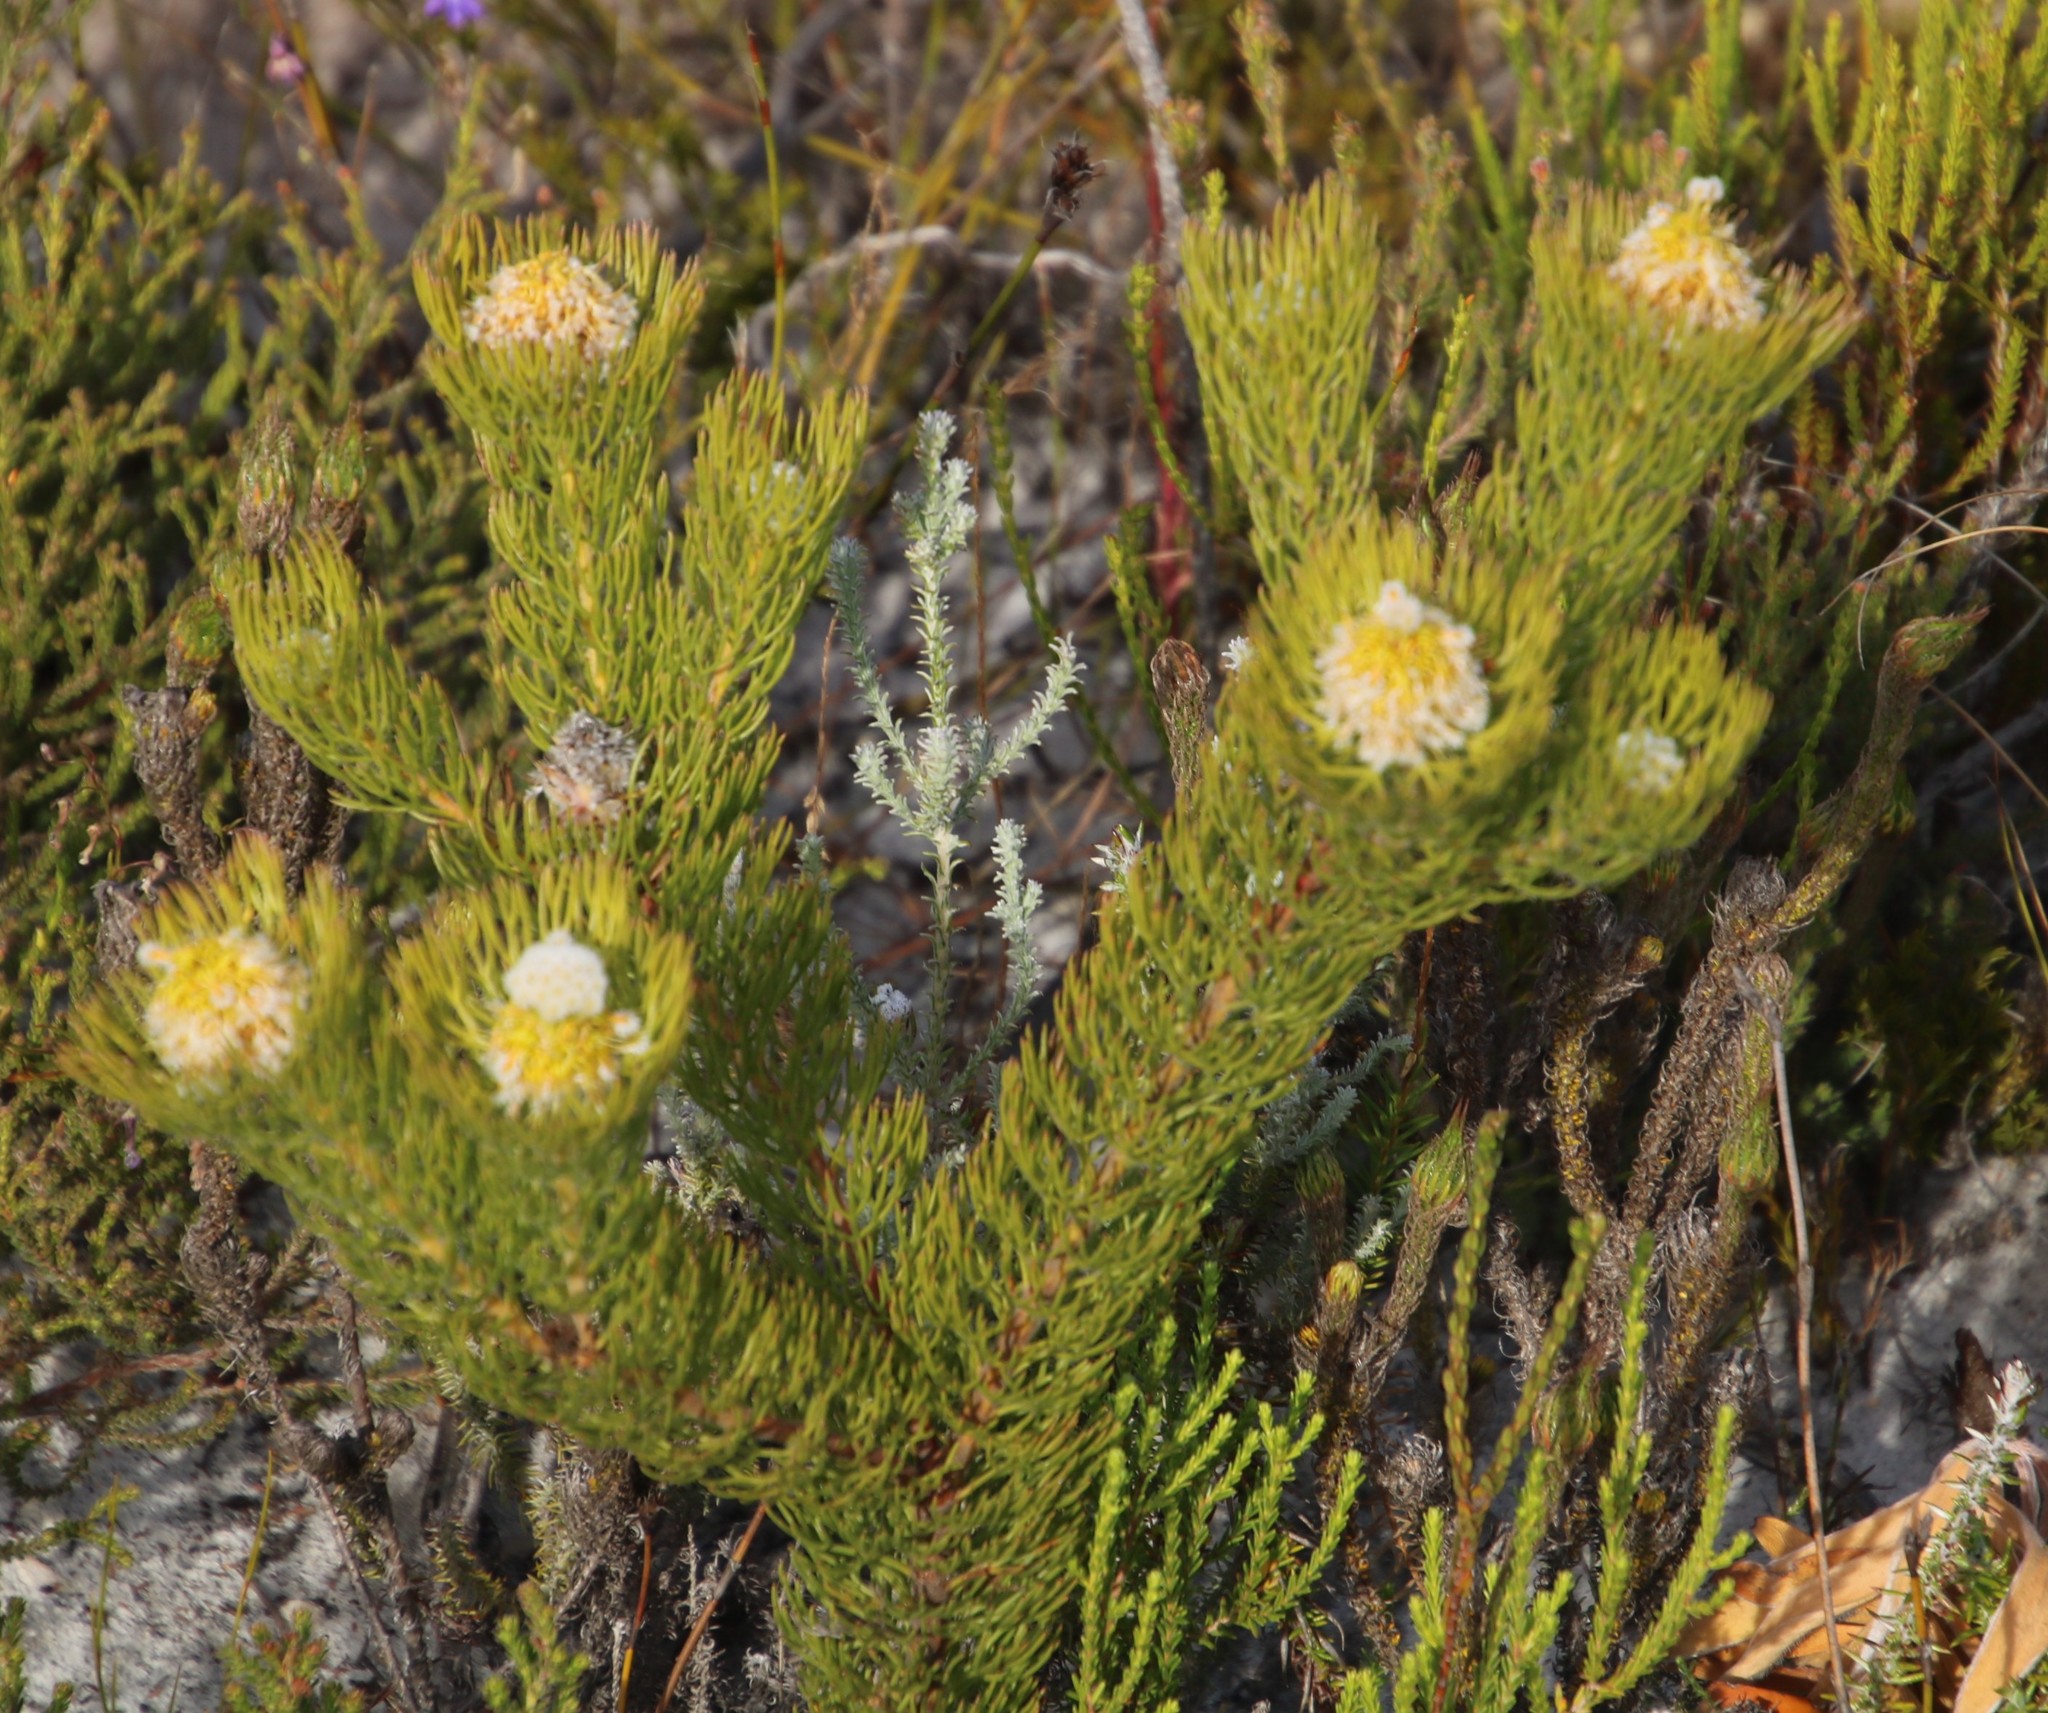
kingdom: Plantae
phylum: Tracheophyta
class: Magnoliopsida
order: Proteales
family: Proteaceae
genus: Serruria
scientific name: Serruria villosa
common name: Golden spiderhead
